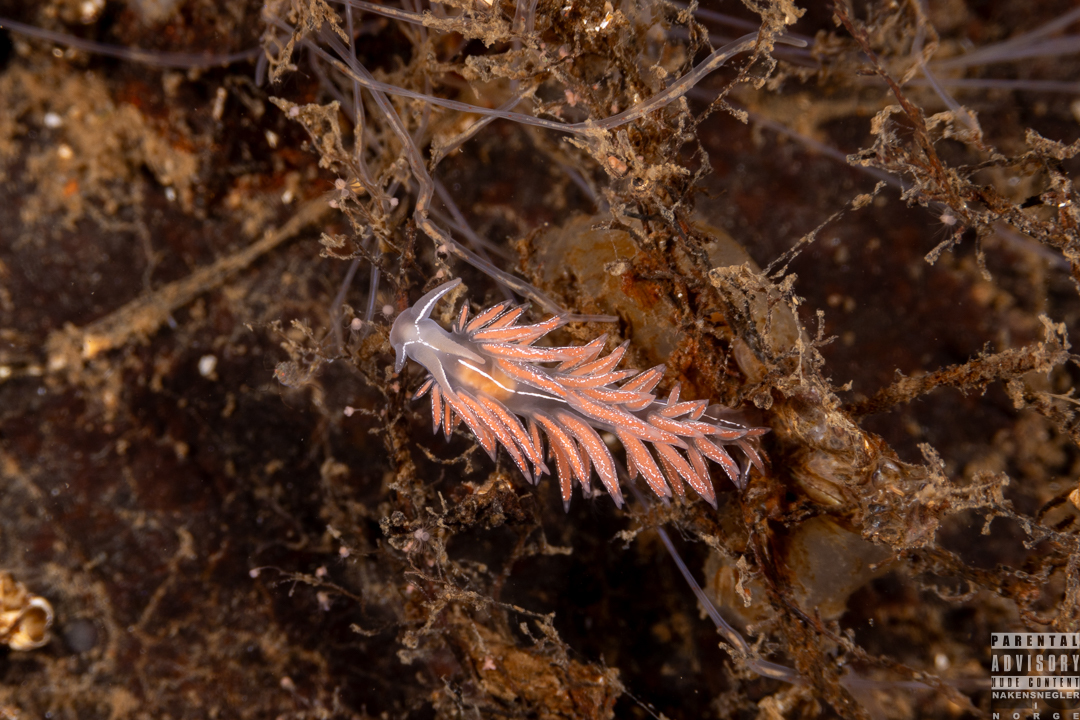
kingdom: Animalia
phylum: Mollusca
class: Gastropoda
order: Nudibranchia
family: Coryphellidae
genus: Coryphella
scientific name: Coryphella chriskaugei
